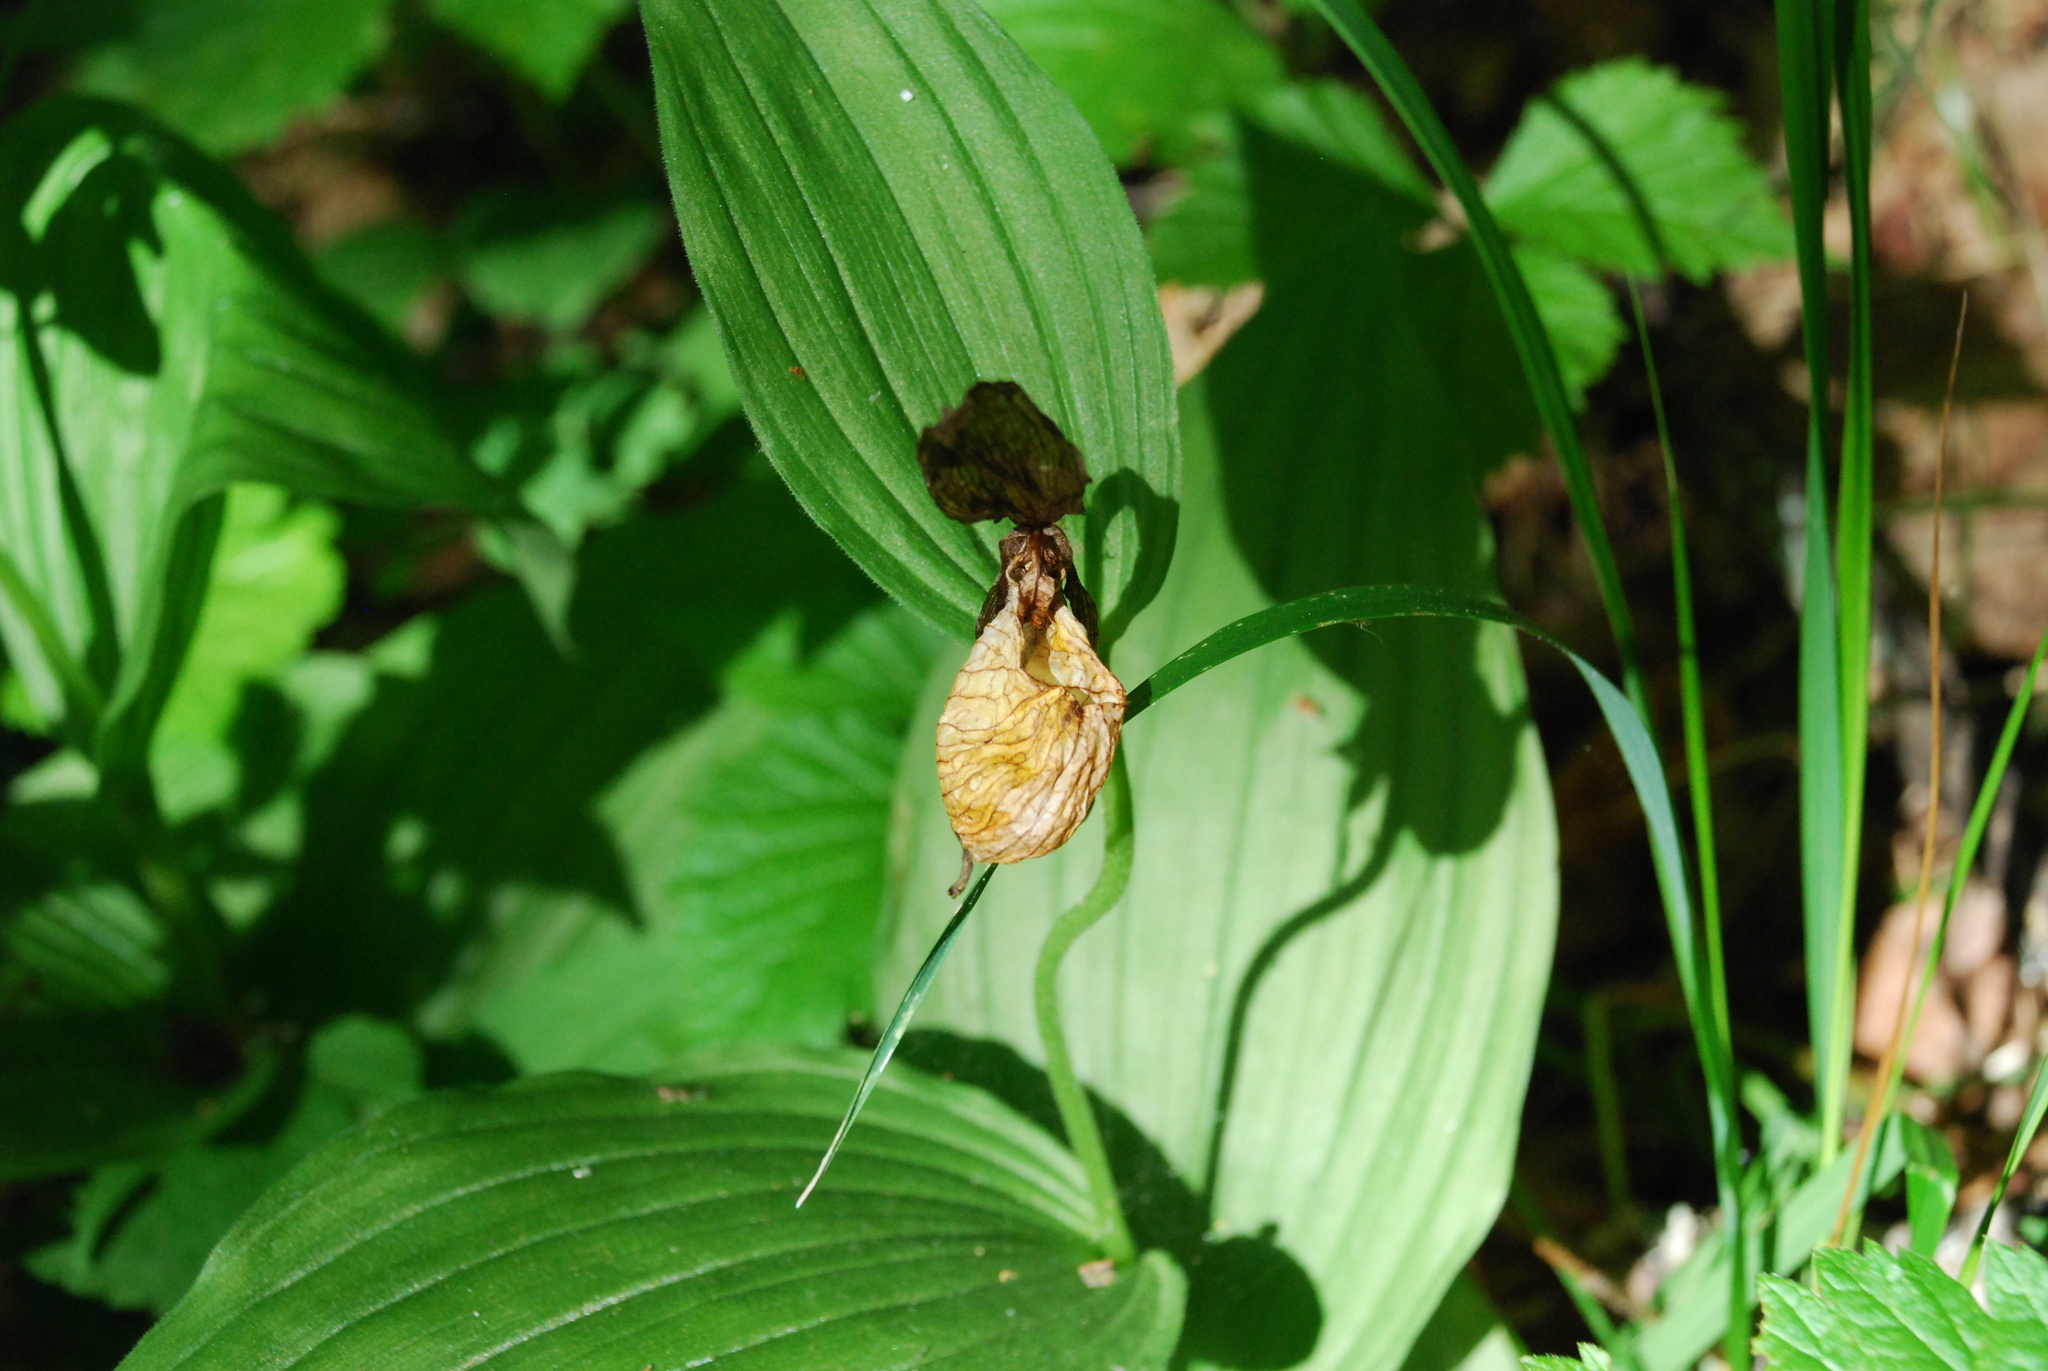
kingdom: Plantae
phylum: Tracheophyta
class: Liliopsida
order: Asparagales
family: Orchidaceae
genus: Cypripedium
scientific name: Cypripedium calceolus
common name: Lady's-slipper
